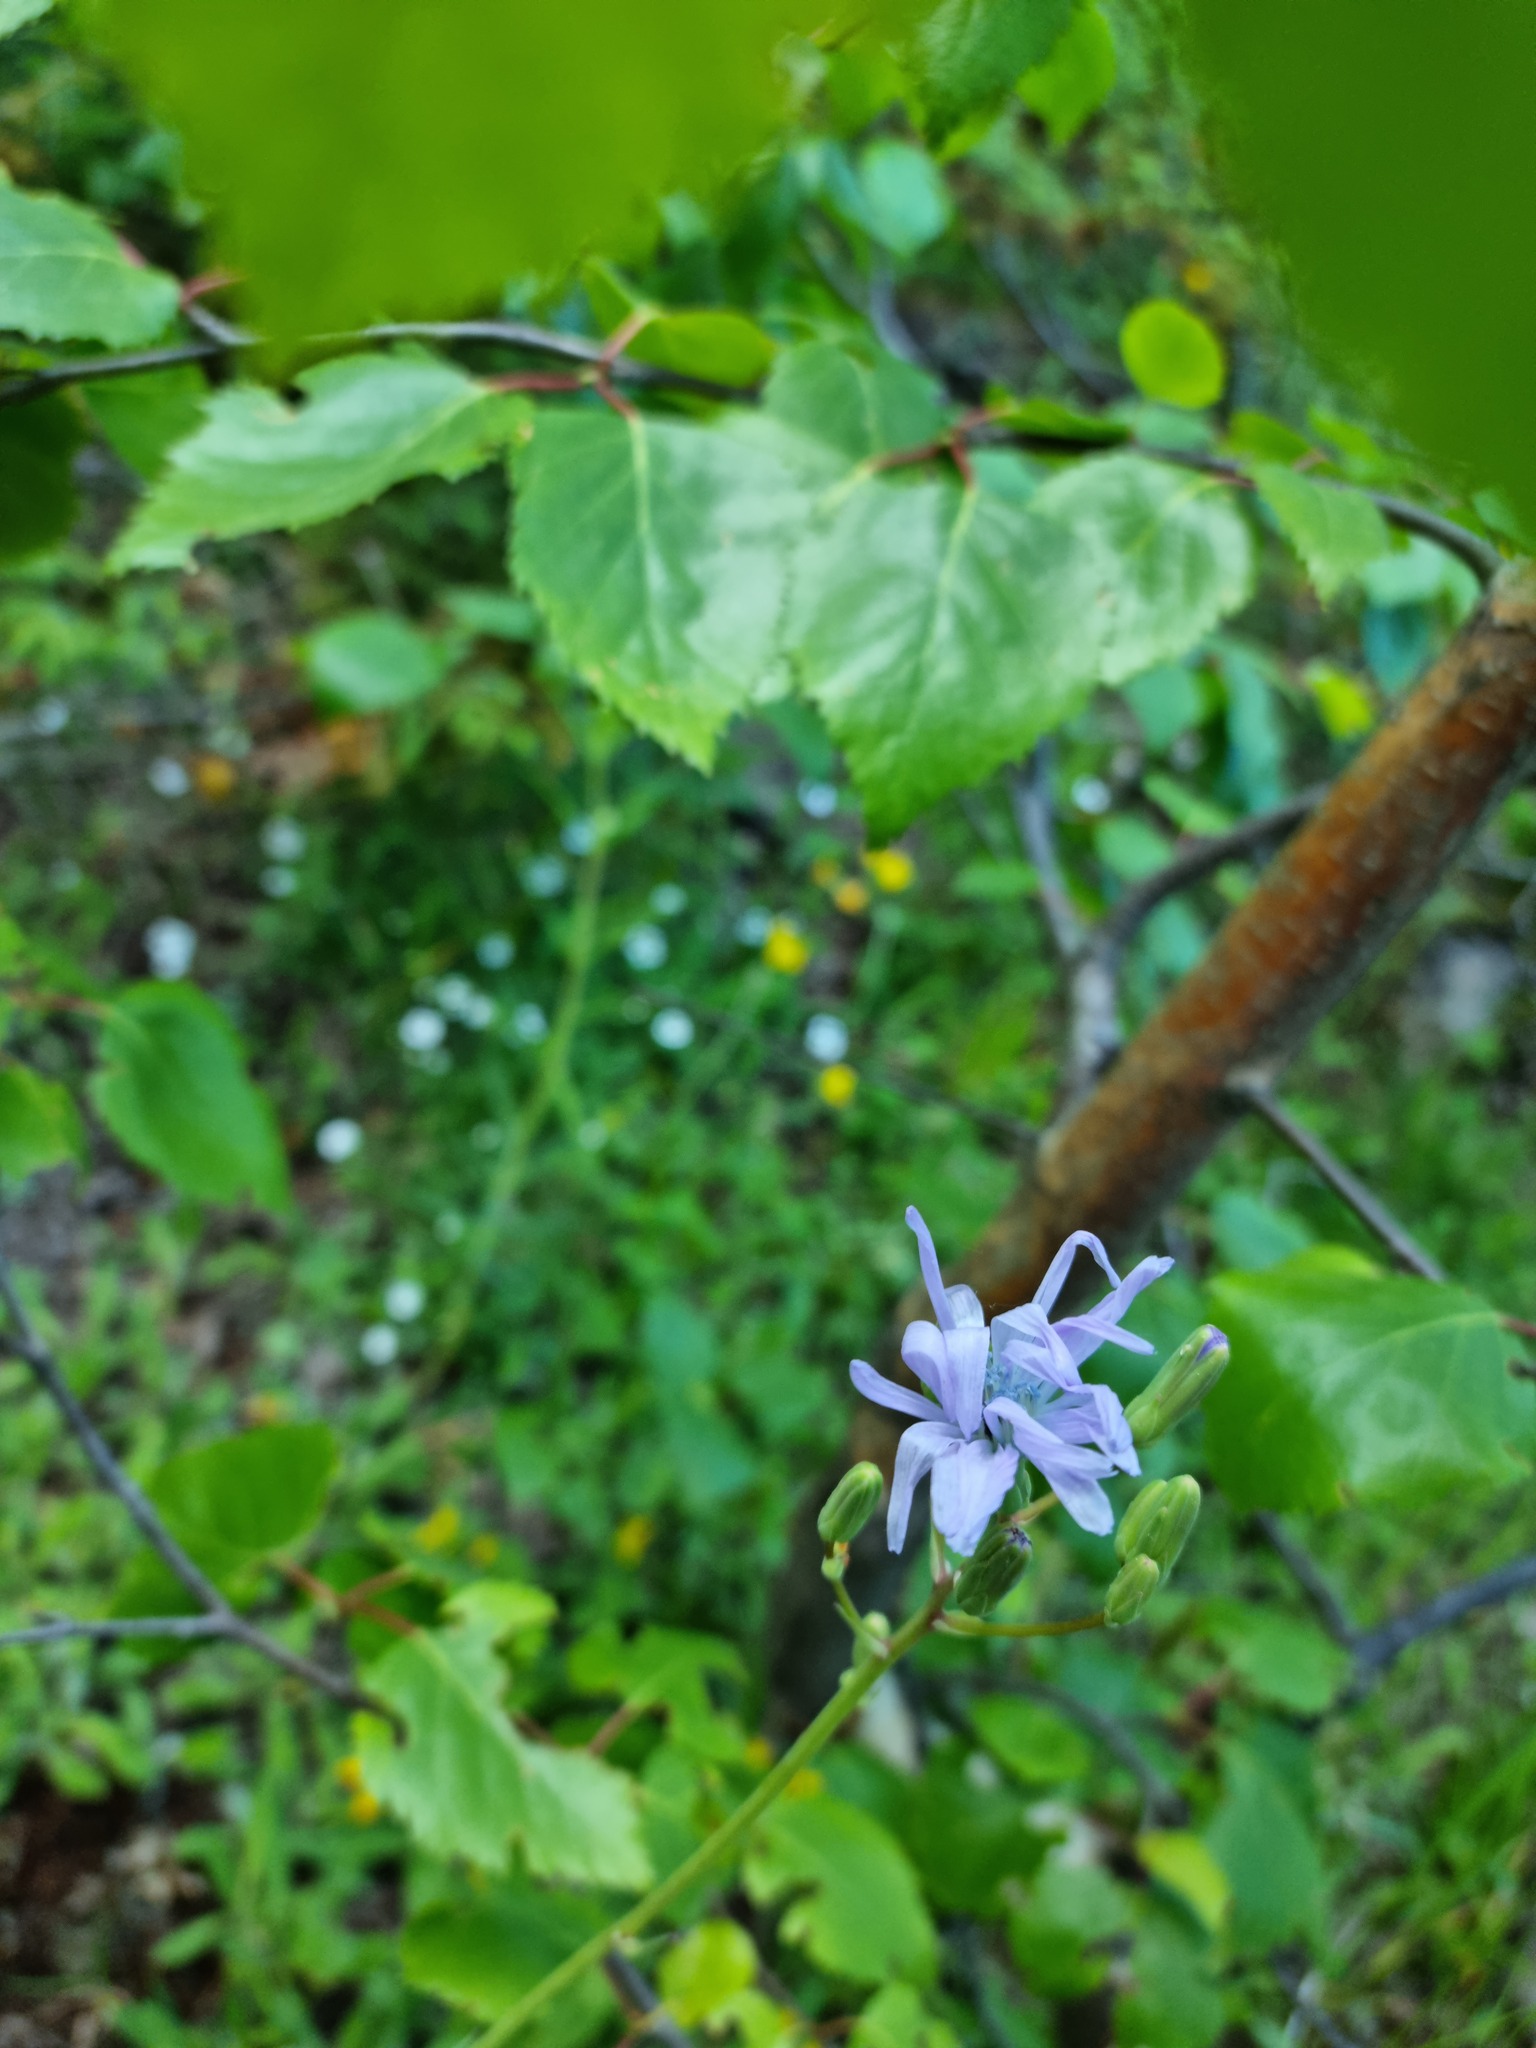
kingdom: Plantae
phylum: Tracheophyta
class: Magnoliopsida
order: Asterales
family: Asteraceae
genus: Lactuca
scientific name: Lactuca racemosa
